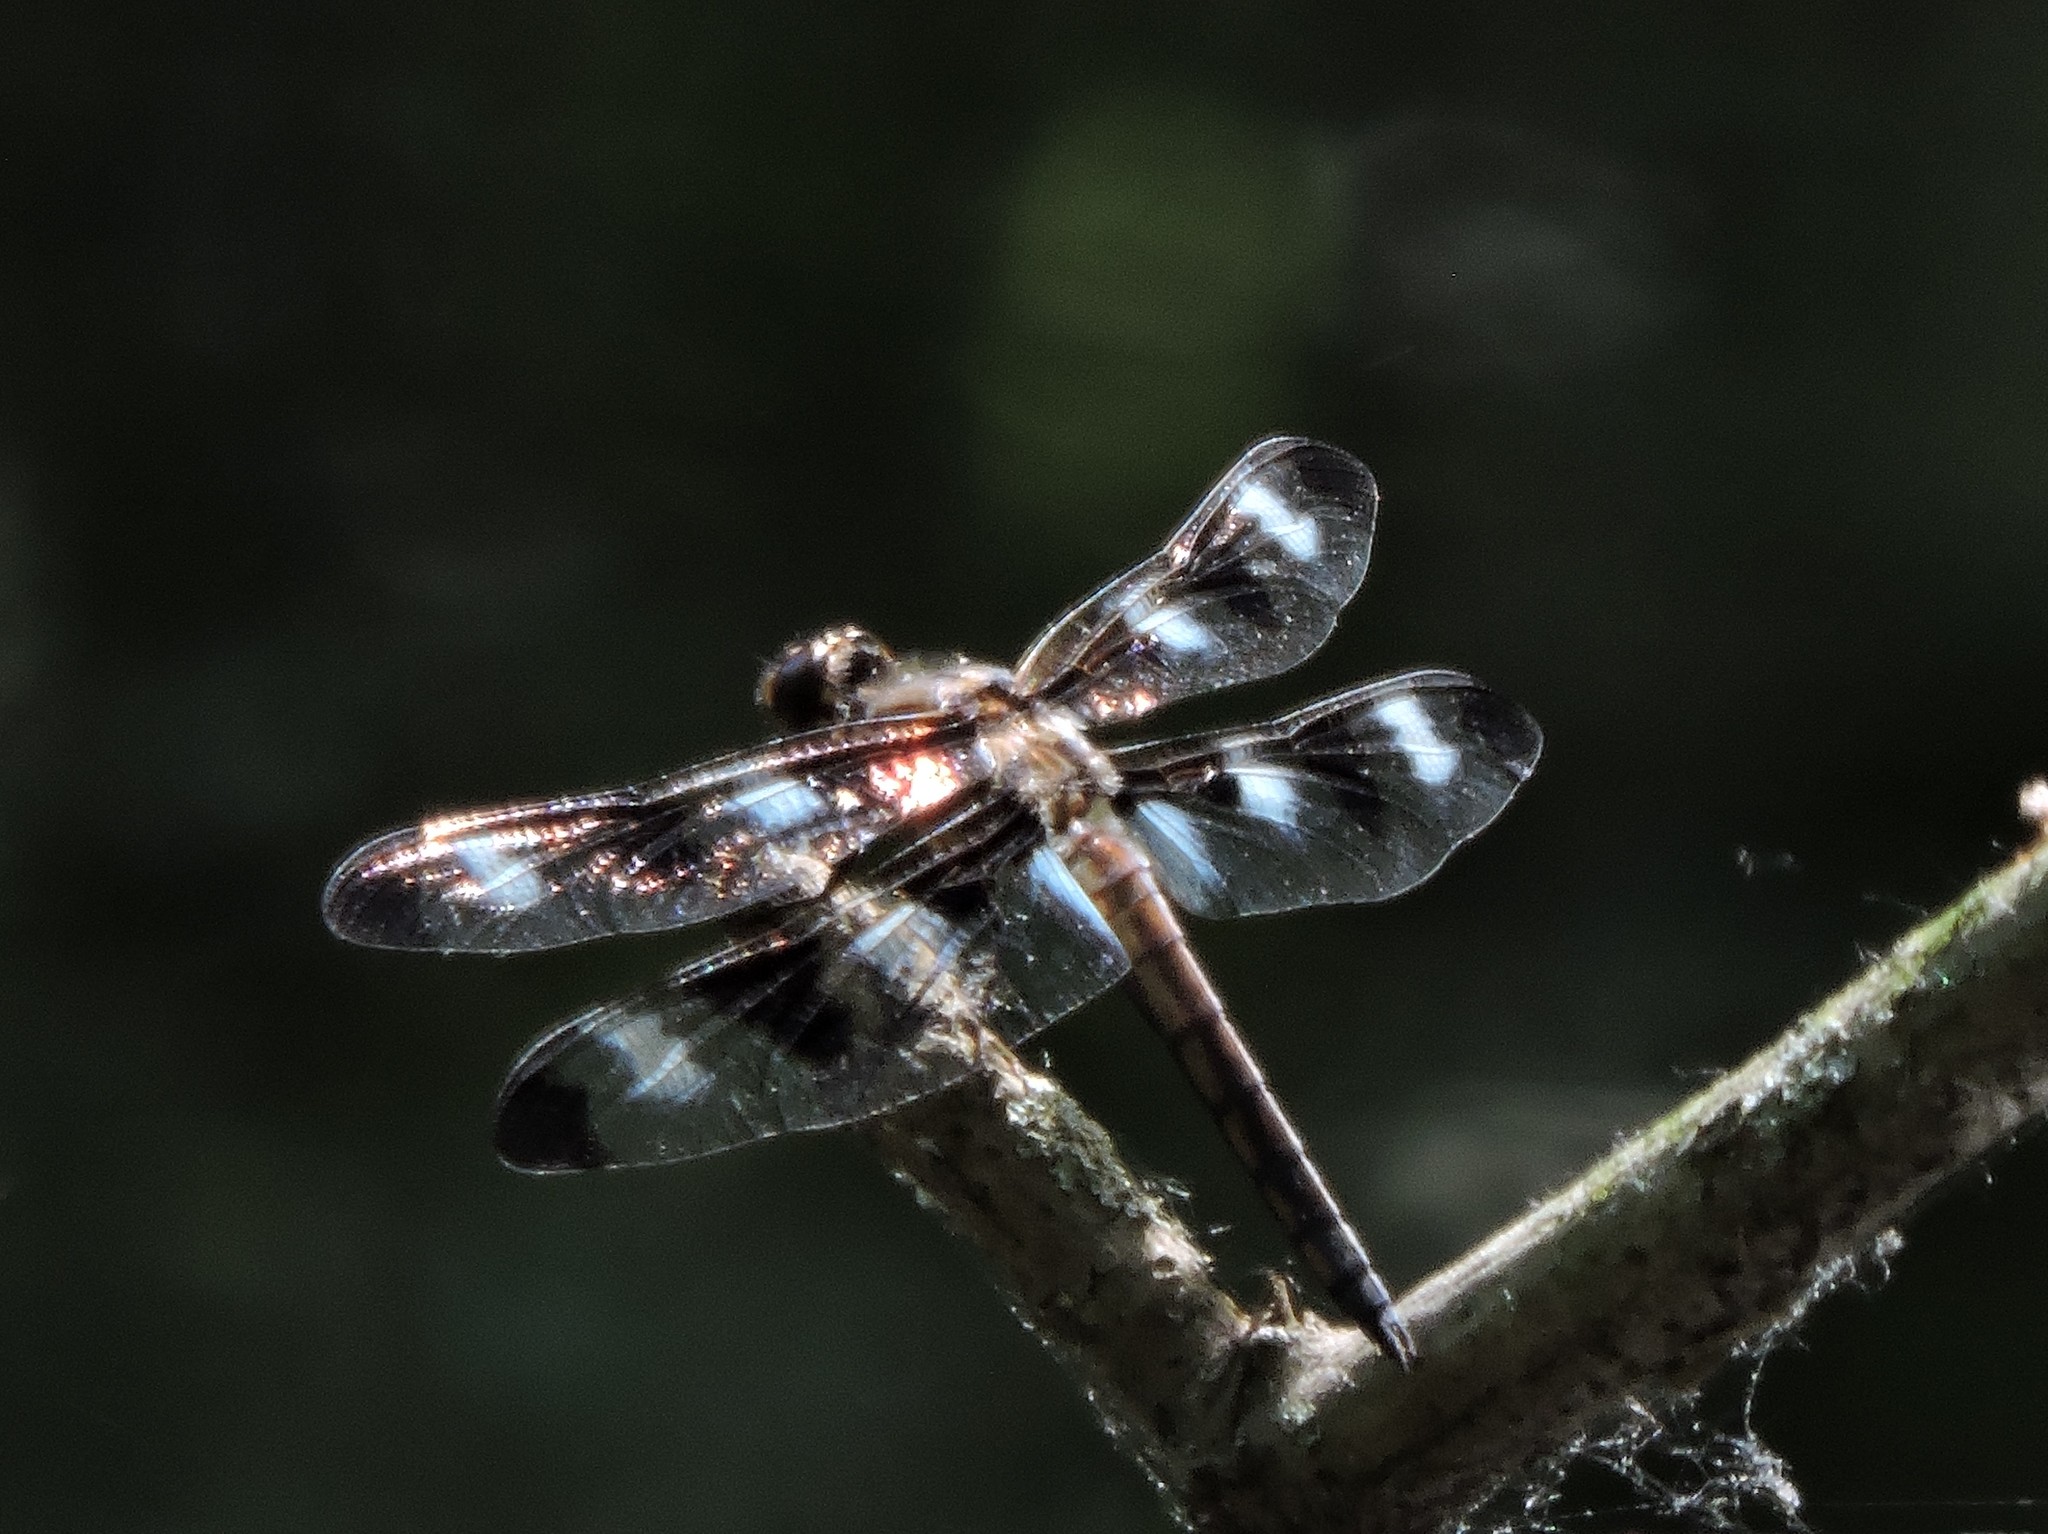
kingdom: Animalia
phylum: Arthropoda
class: Insecta
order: Odonata
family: Libellulidae
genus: Libellula
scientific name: Libellula pulchella
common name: Twelve-spotted skimmer
